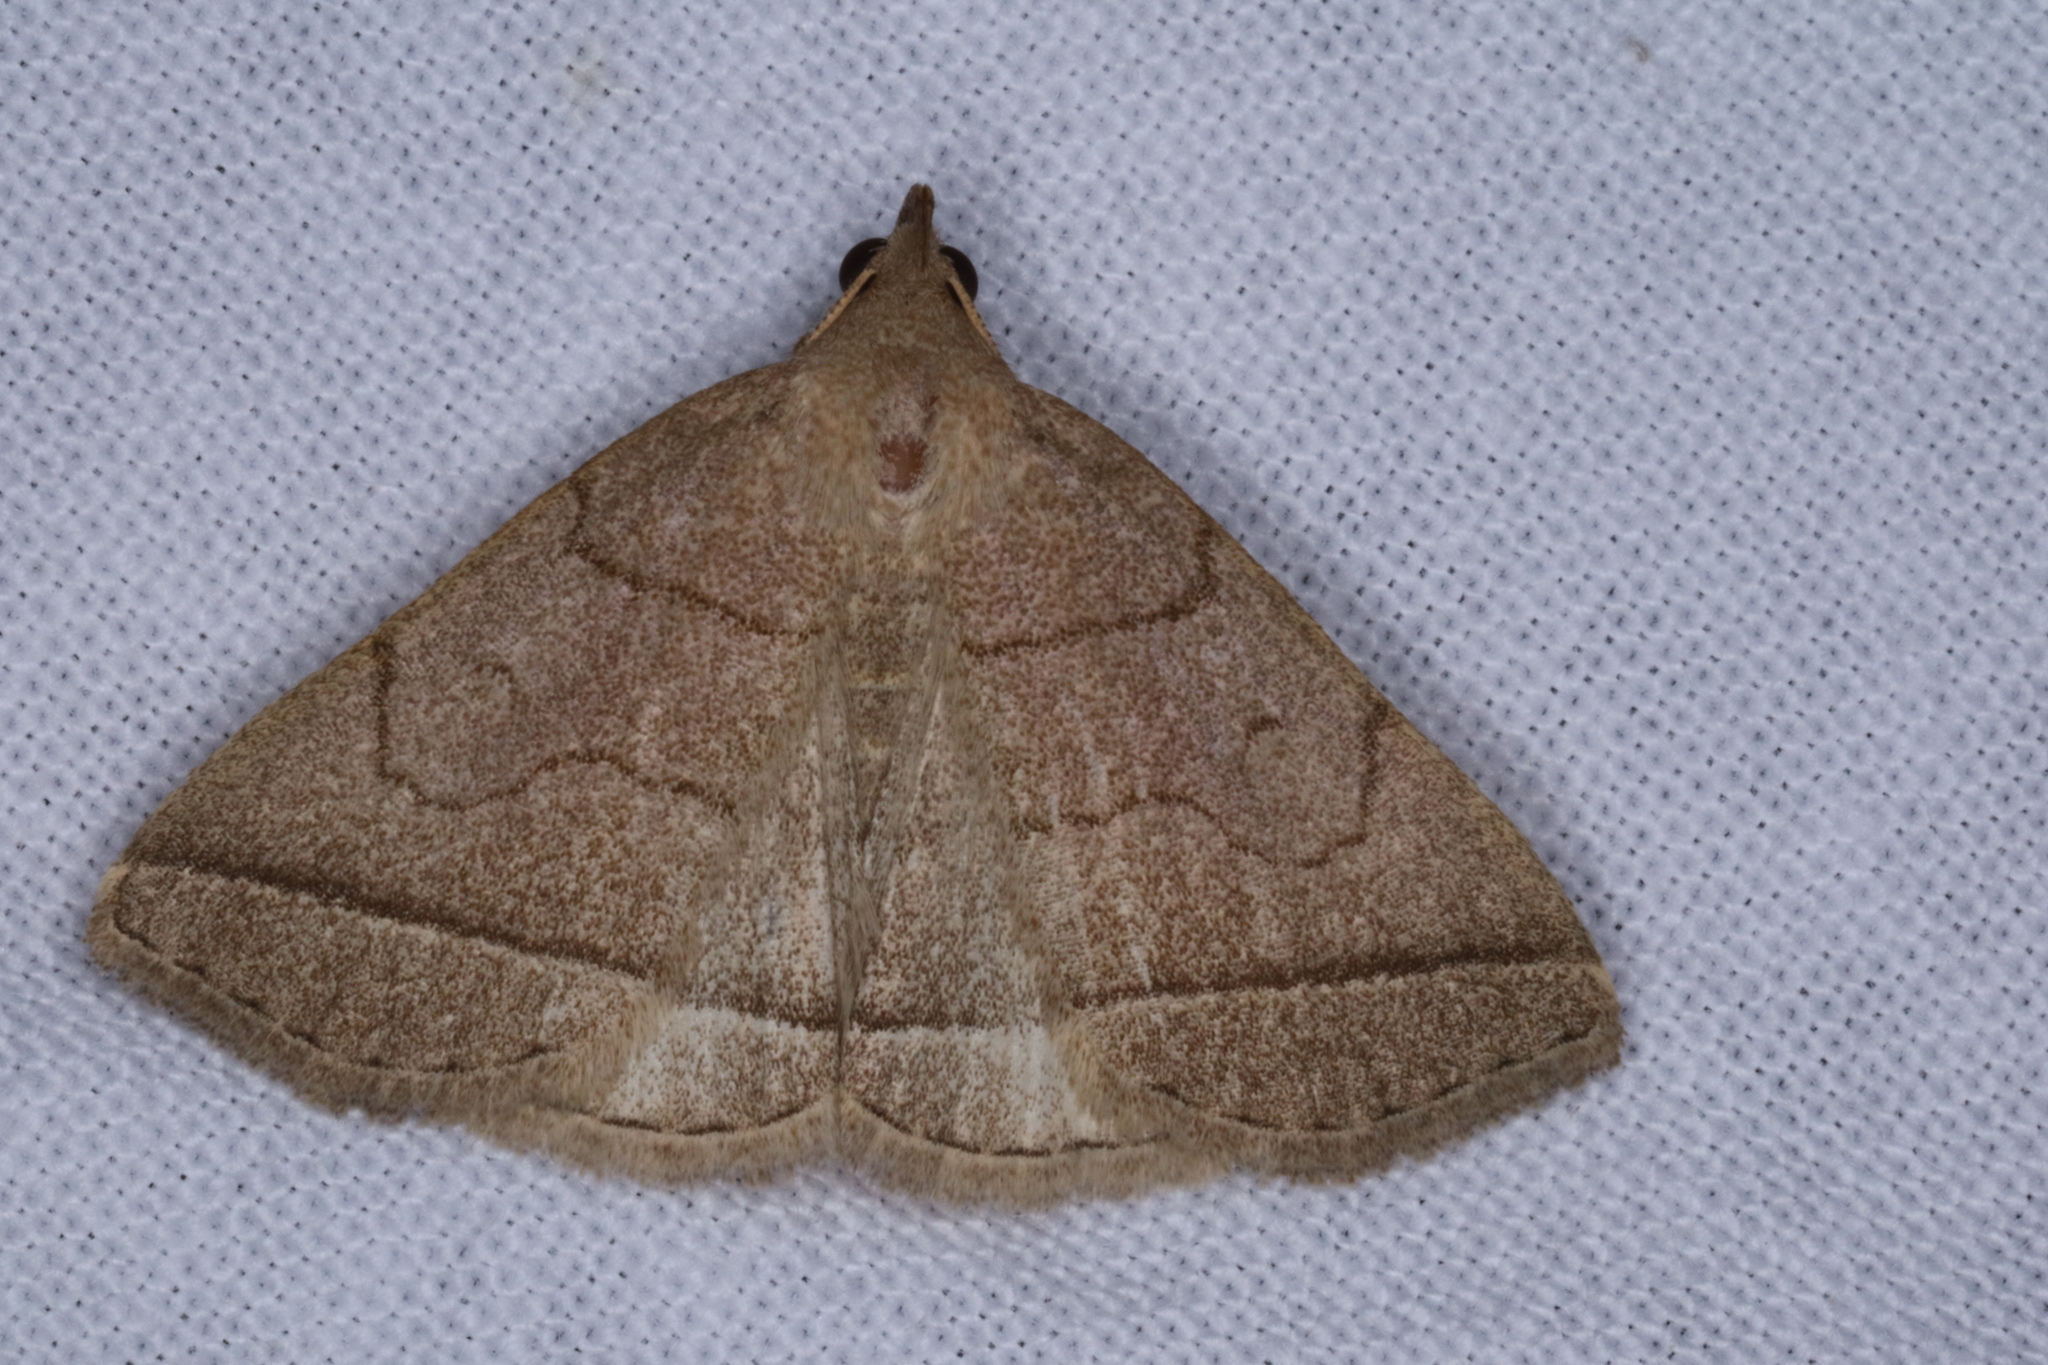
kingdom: Animalia
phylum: Arthropoda
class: Insecta
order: Lepidoptera
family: Erebidae
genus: Zanclognatha
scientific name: Zanclognatha cruralis
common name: Early fan-foot
